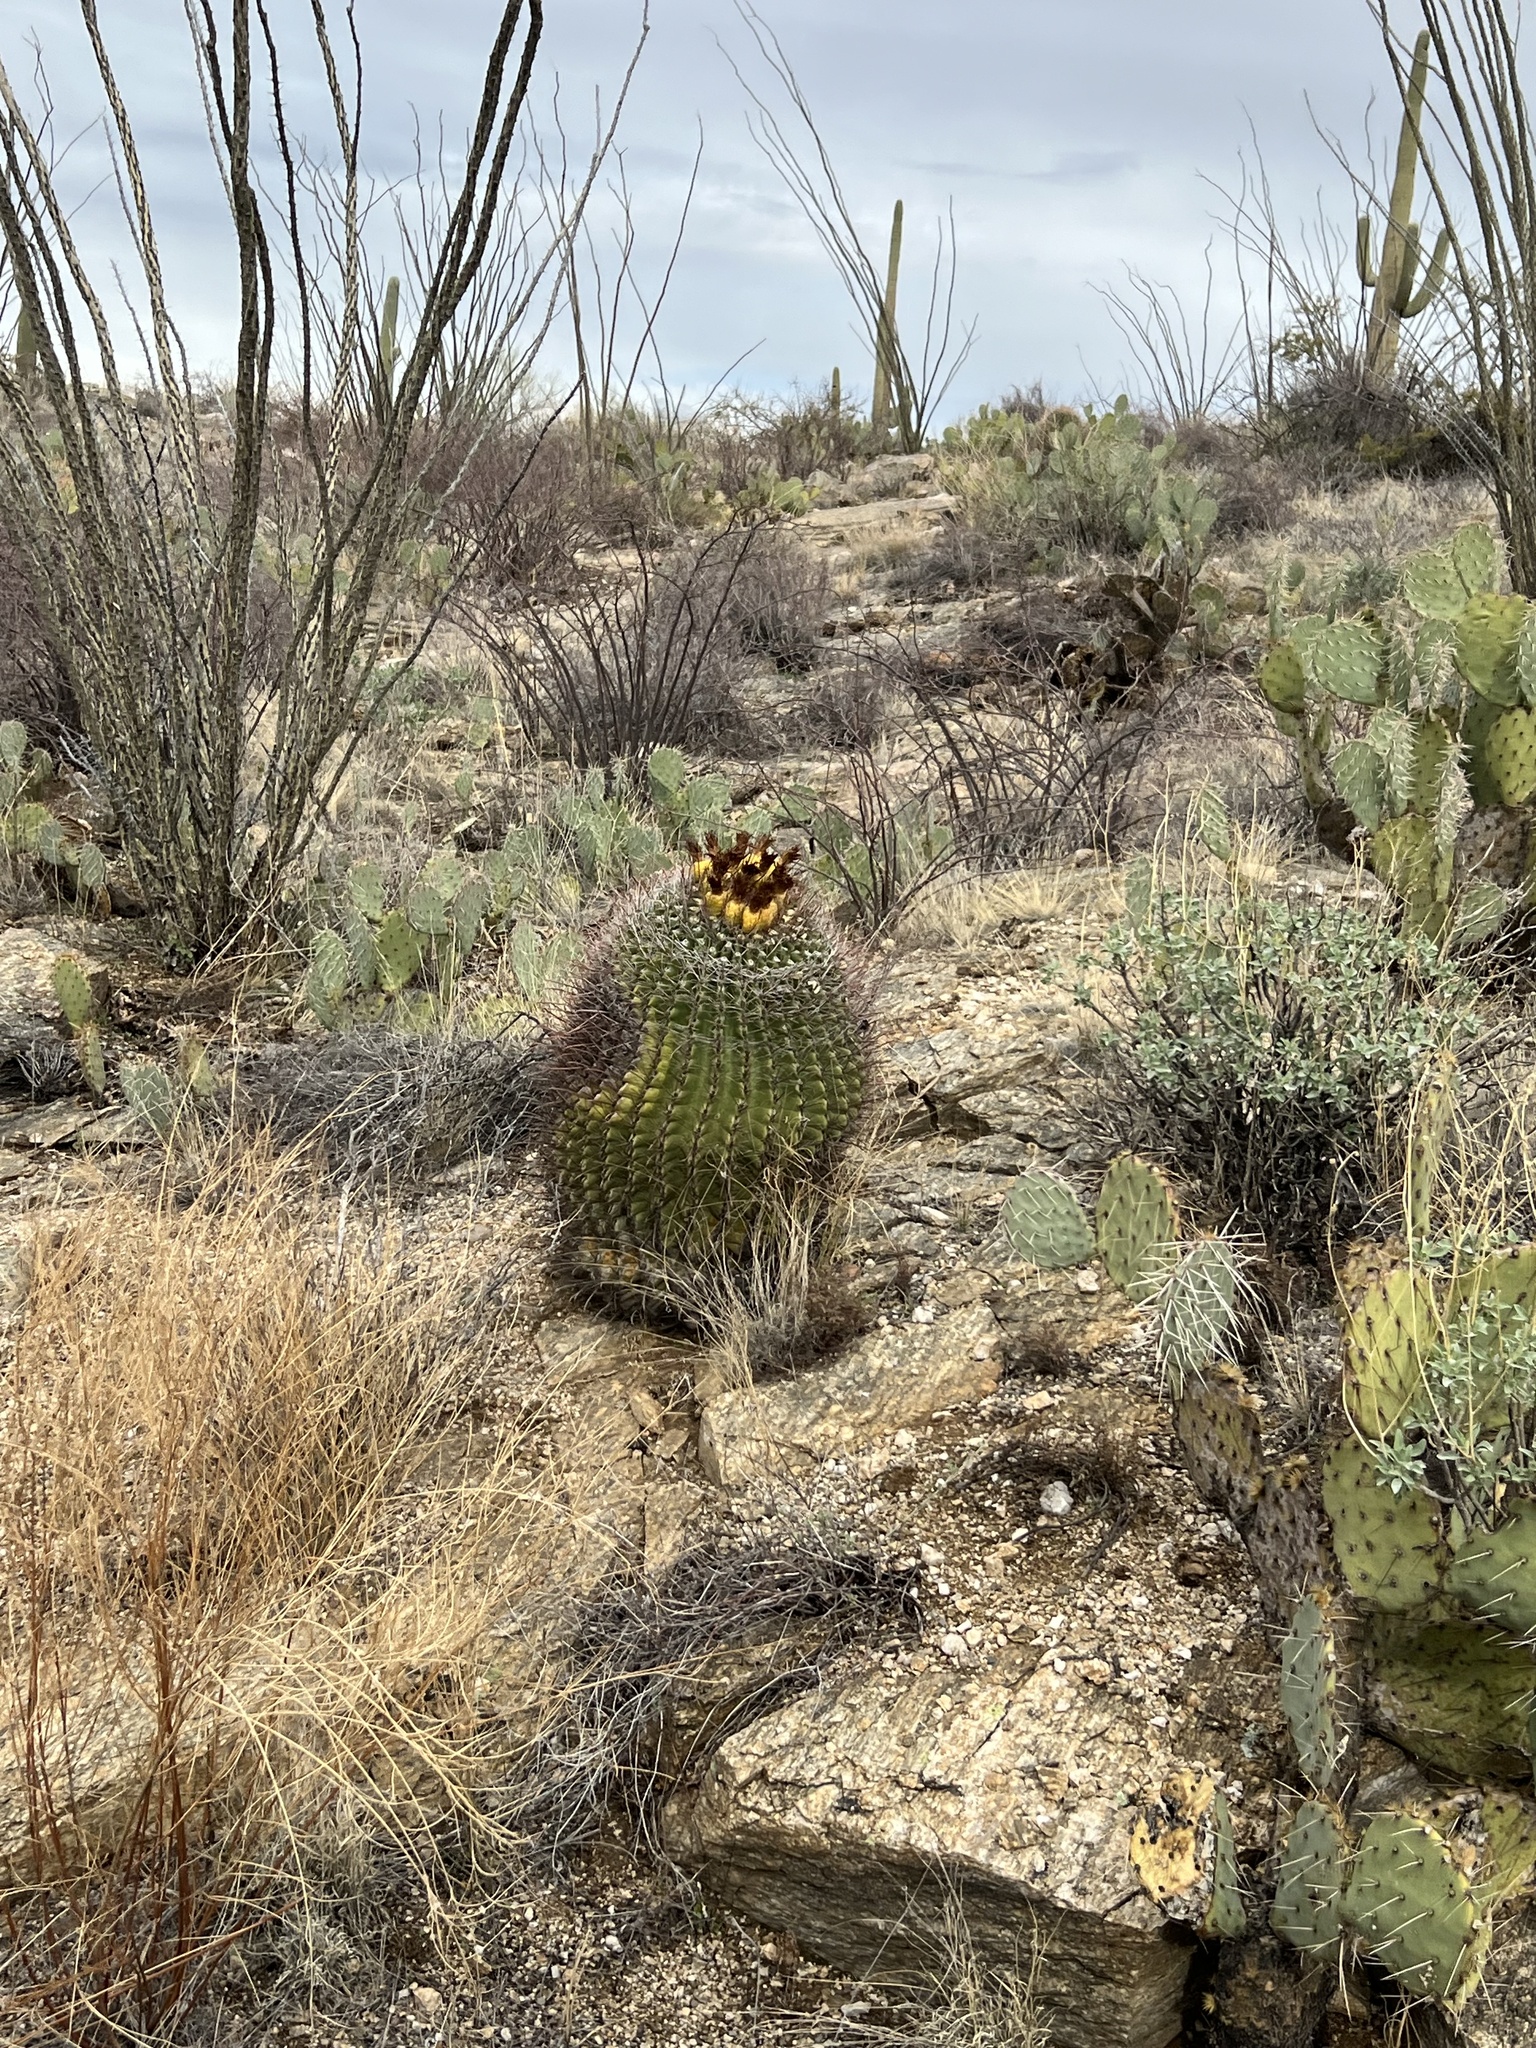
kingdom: Plantae
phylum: Tracheophyta
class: Magnoliopsida
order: Caryophyllales
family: Cactaceae
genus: Ferocactus
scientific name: Ferocactus wislizeni
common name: Candy barrel cactus
